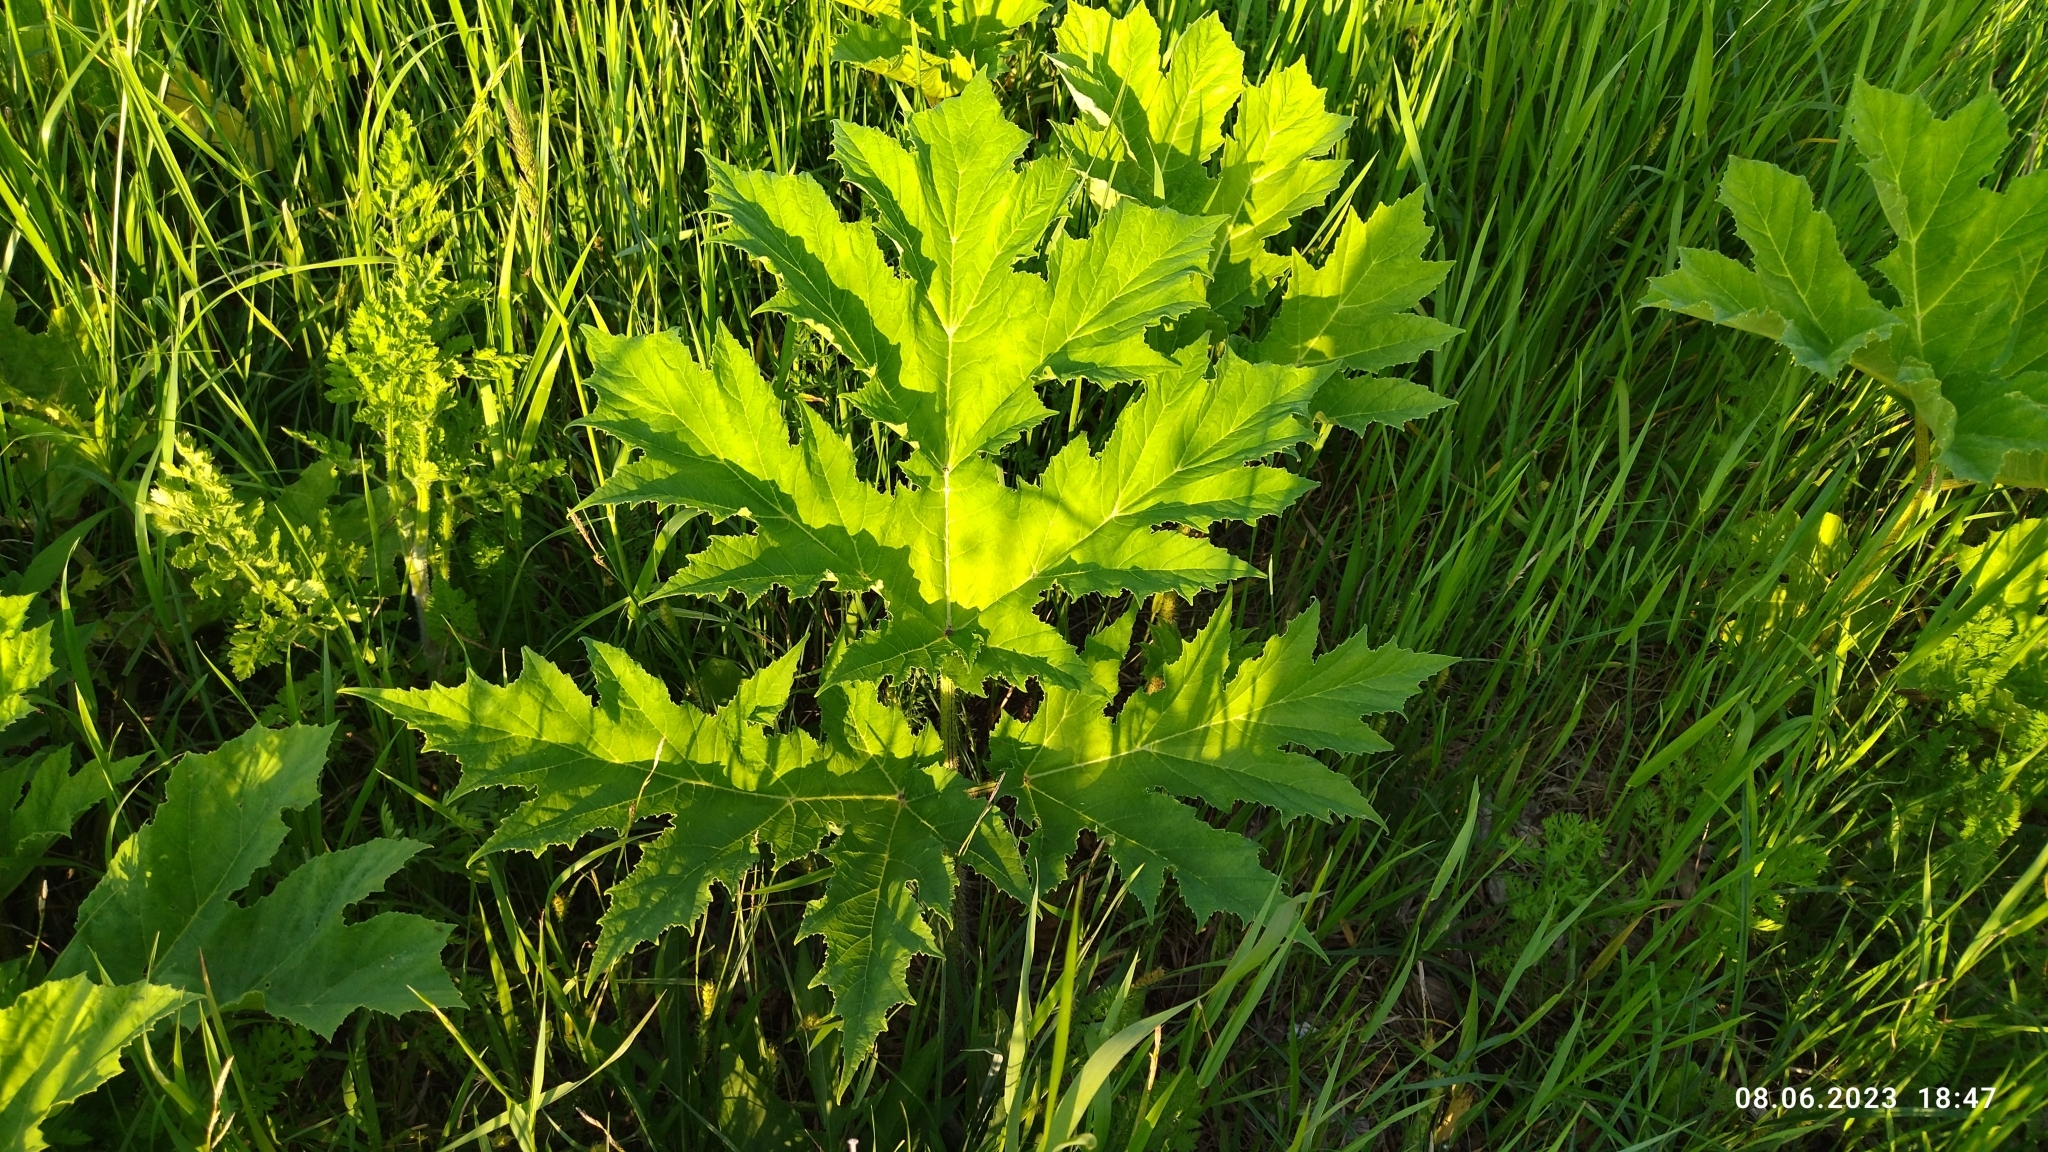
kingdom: Plantae
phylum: Tracheophyta
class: Magnoliopsida
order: Apiales
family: Apiaceae
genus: Heracleum
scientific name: Heracleum sosnowskyi
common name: Sosnowsky's hogweed
